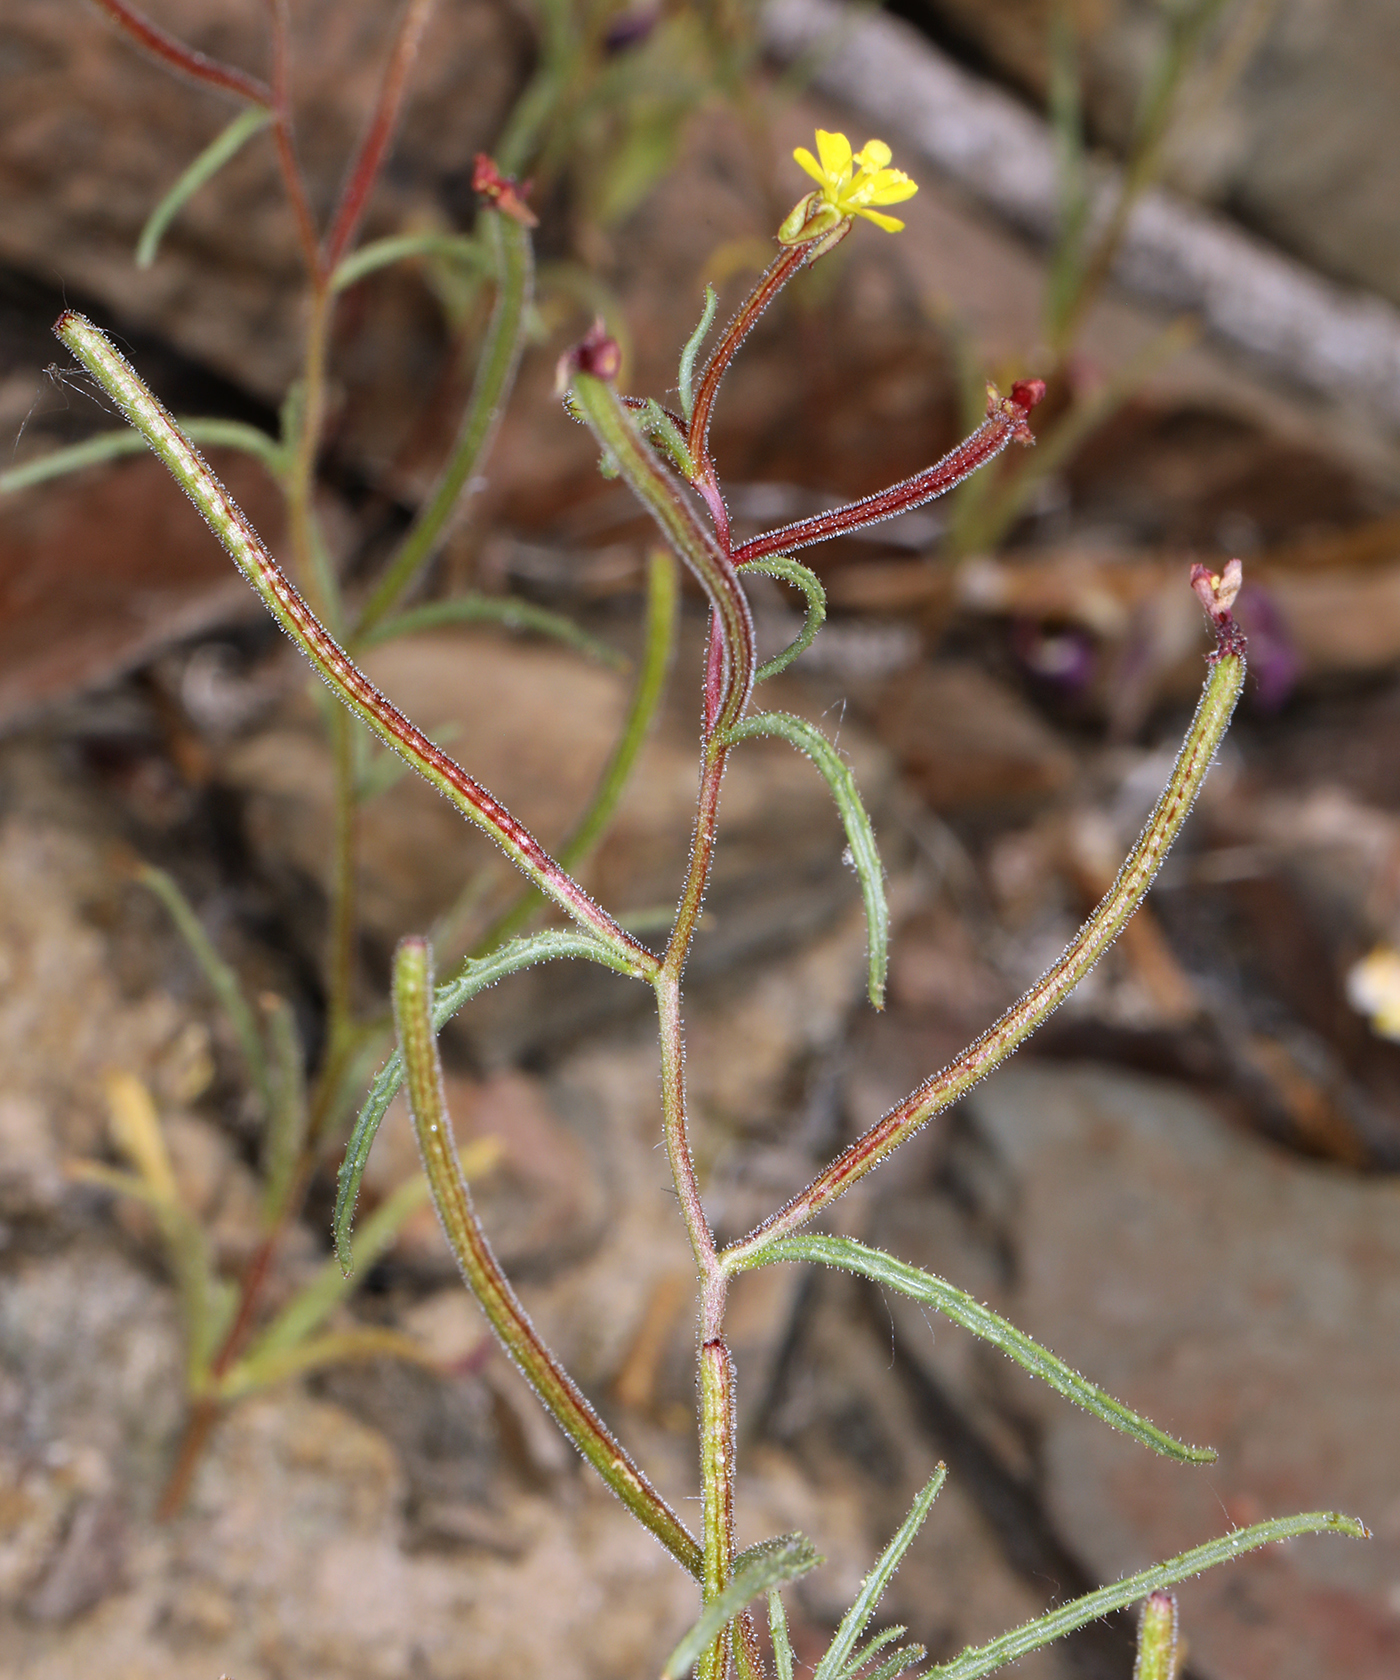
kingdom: Plantae
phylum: Tracheophyta
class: Magnoliopsida
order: Myrtales
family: Onagraceae
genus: Camissonia
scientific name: Camissonia pusilla
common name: Obscure camissonia
